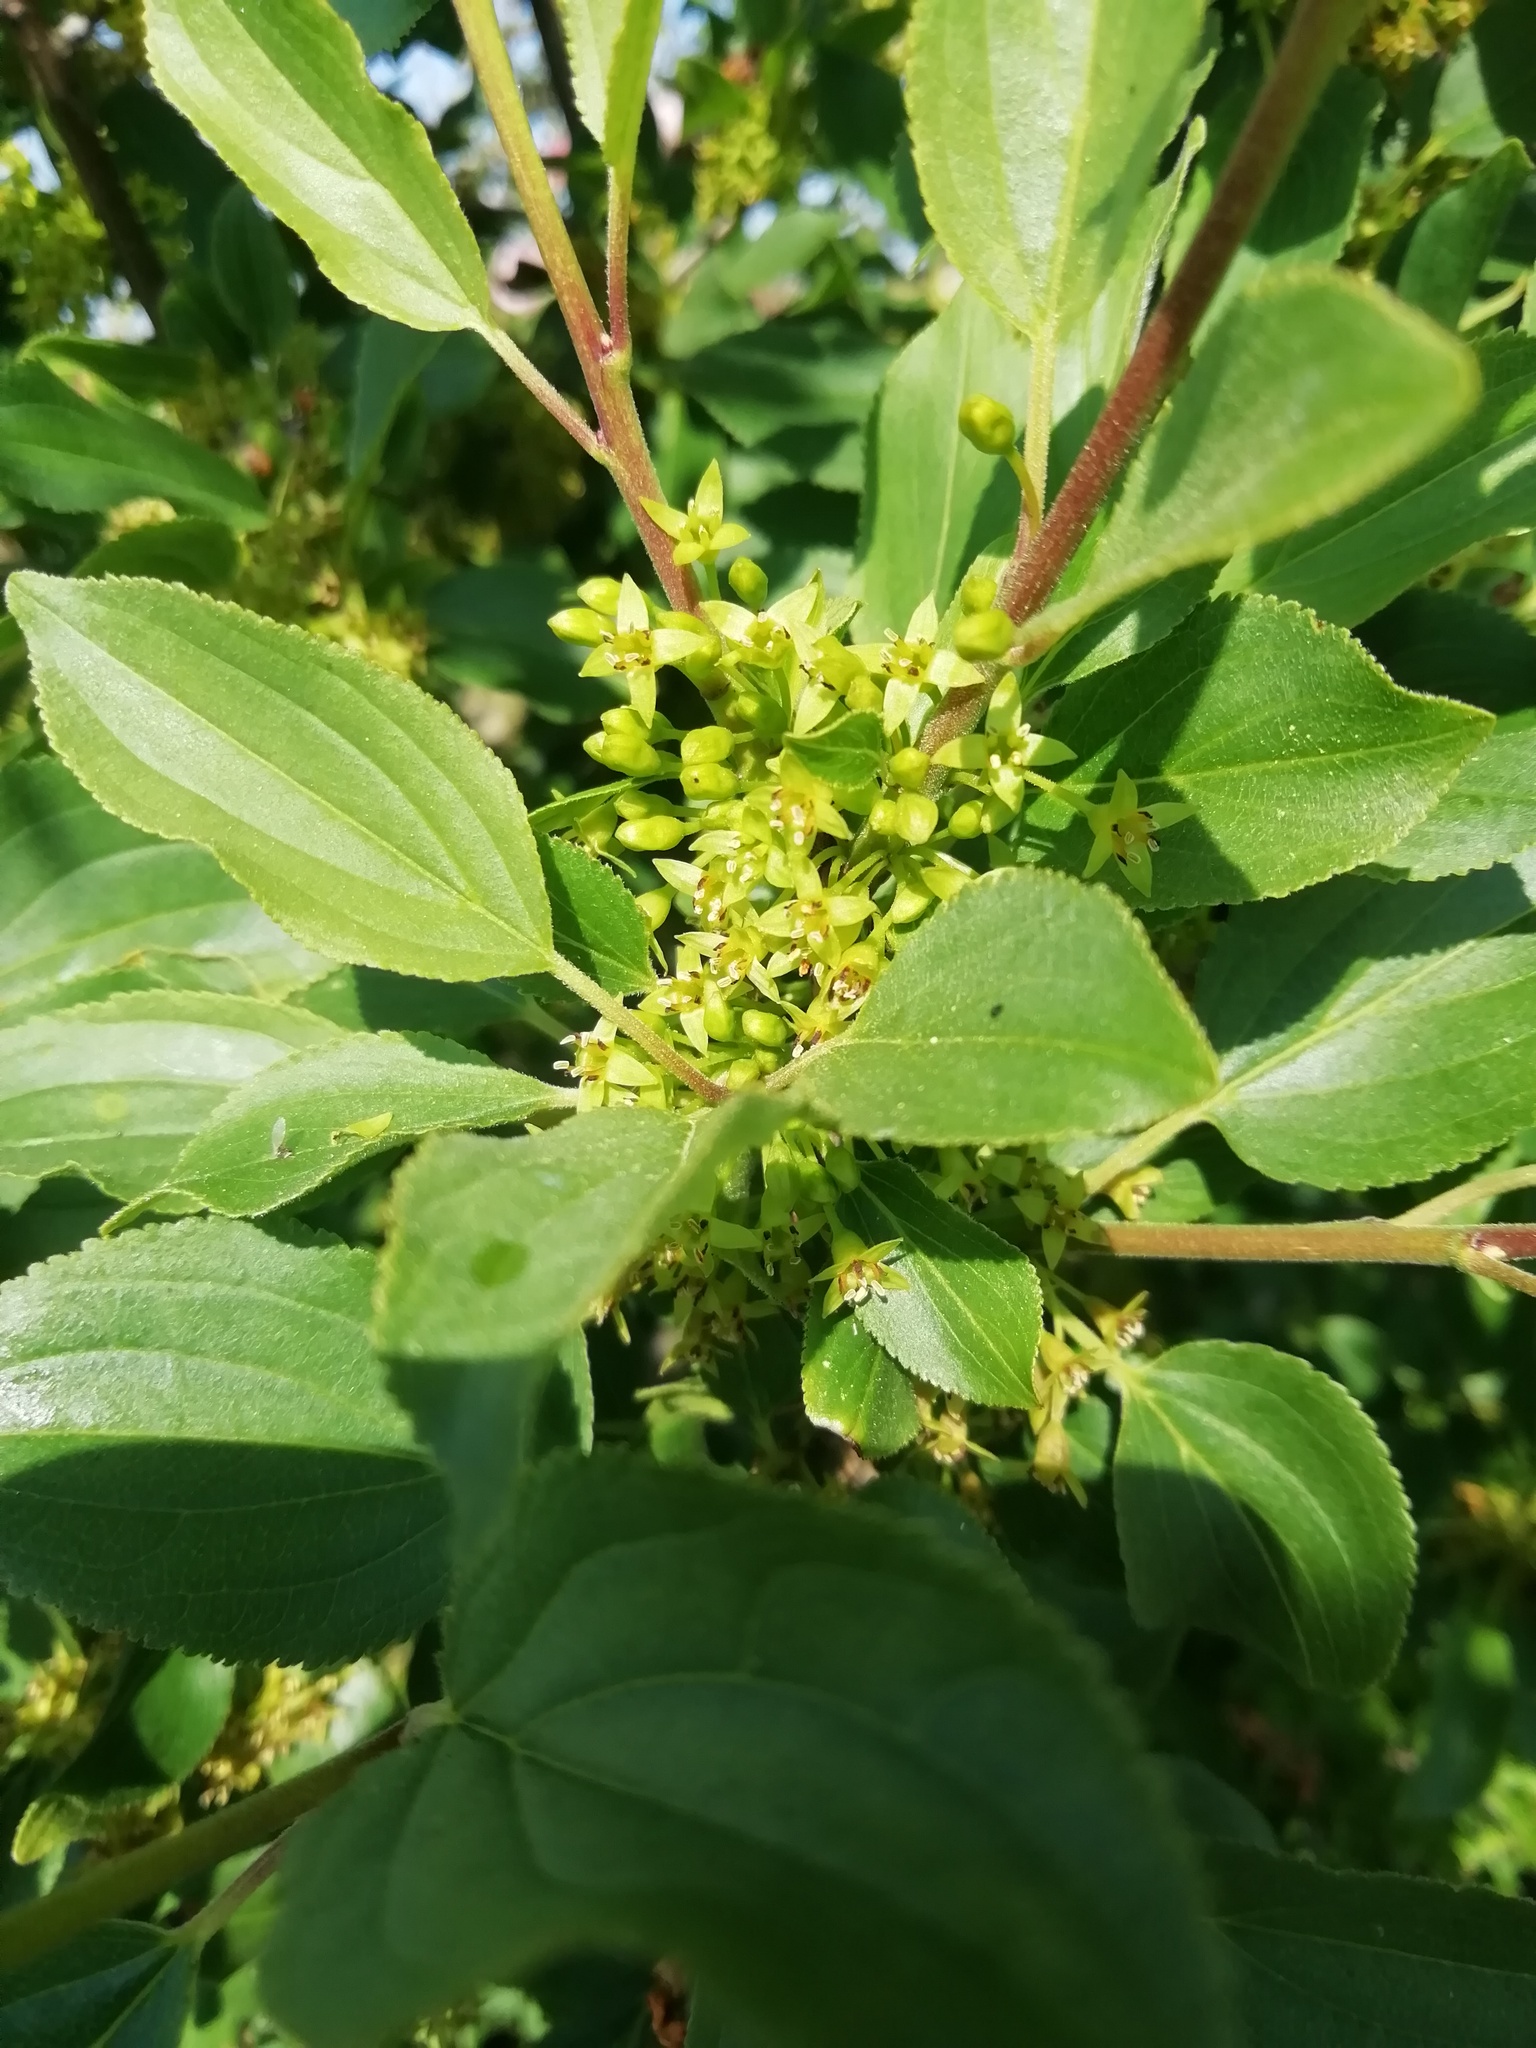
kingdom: Plantae
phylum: Tracheophyta
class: Magnoliopsida
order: Rosales
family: Rhamnaceae
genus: Rhamnus
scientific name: Rhamnus cathartica
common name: Common buckthorn
